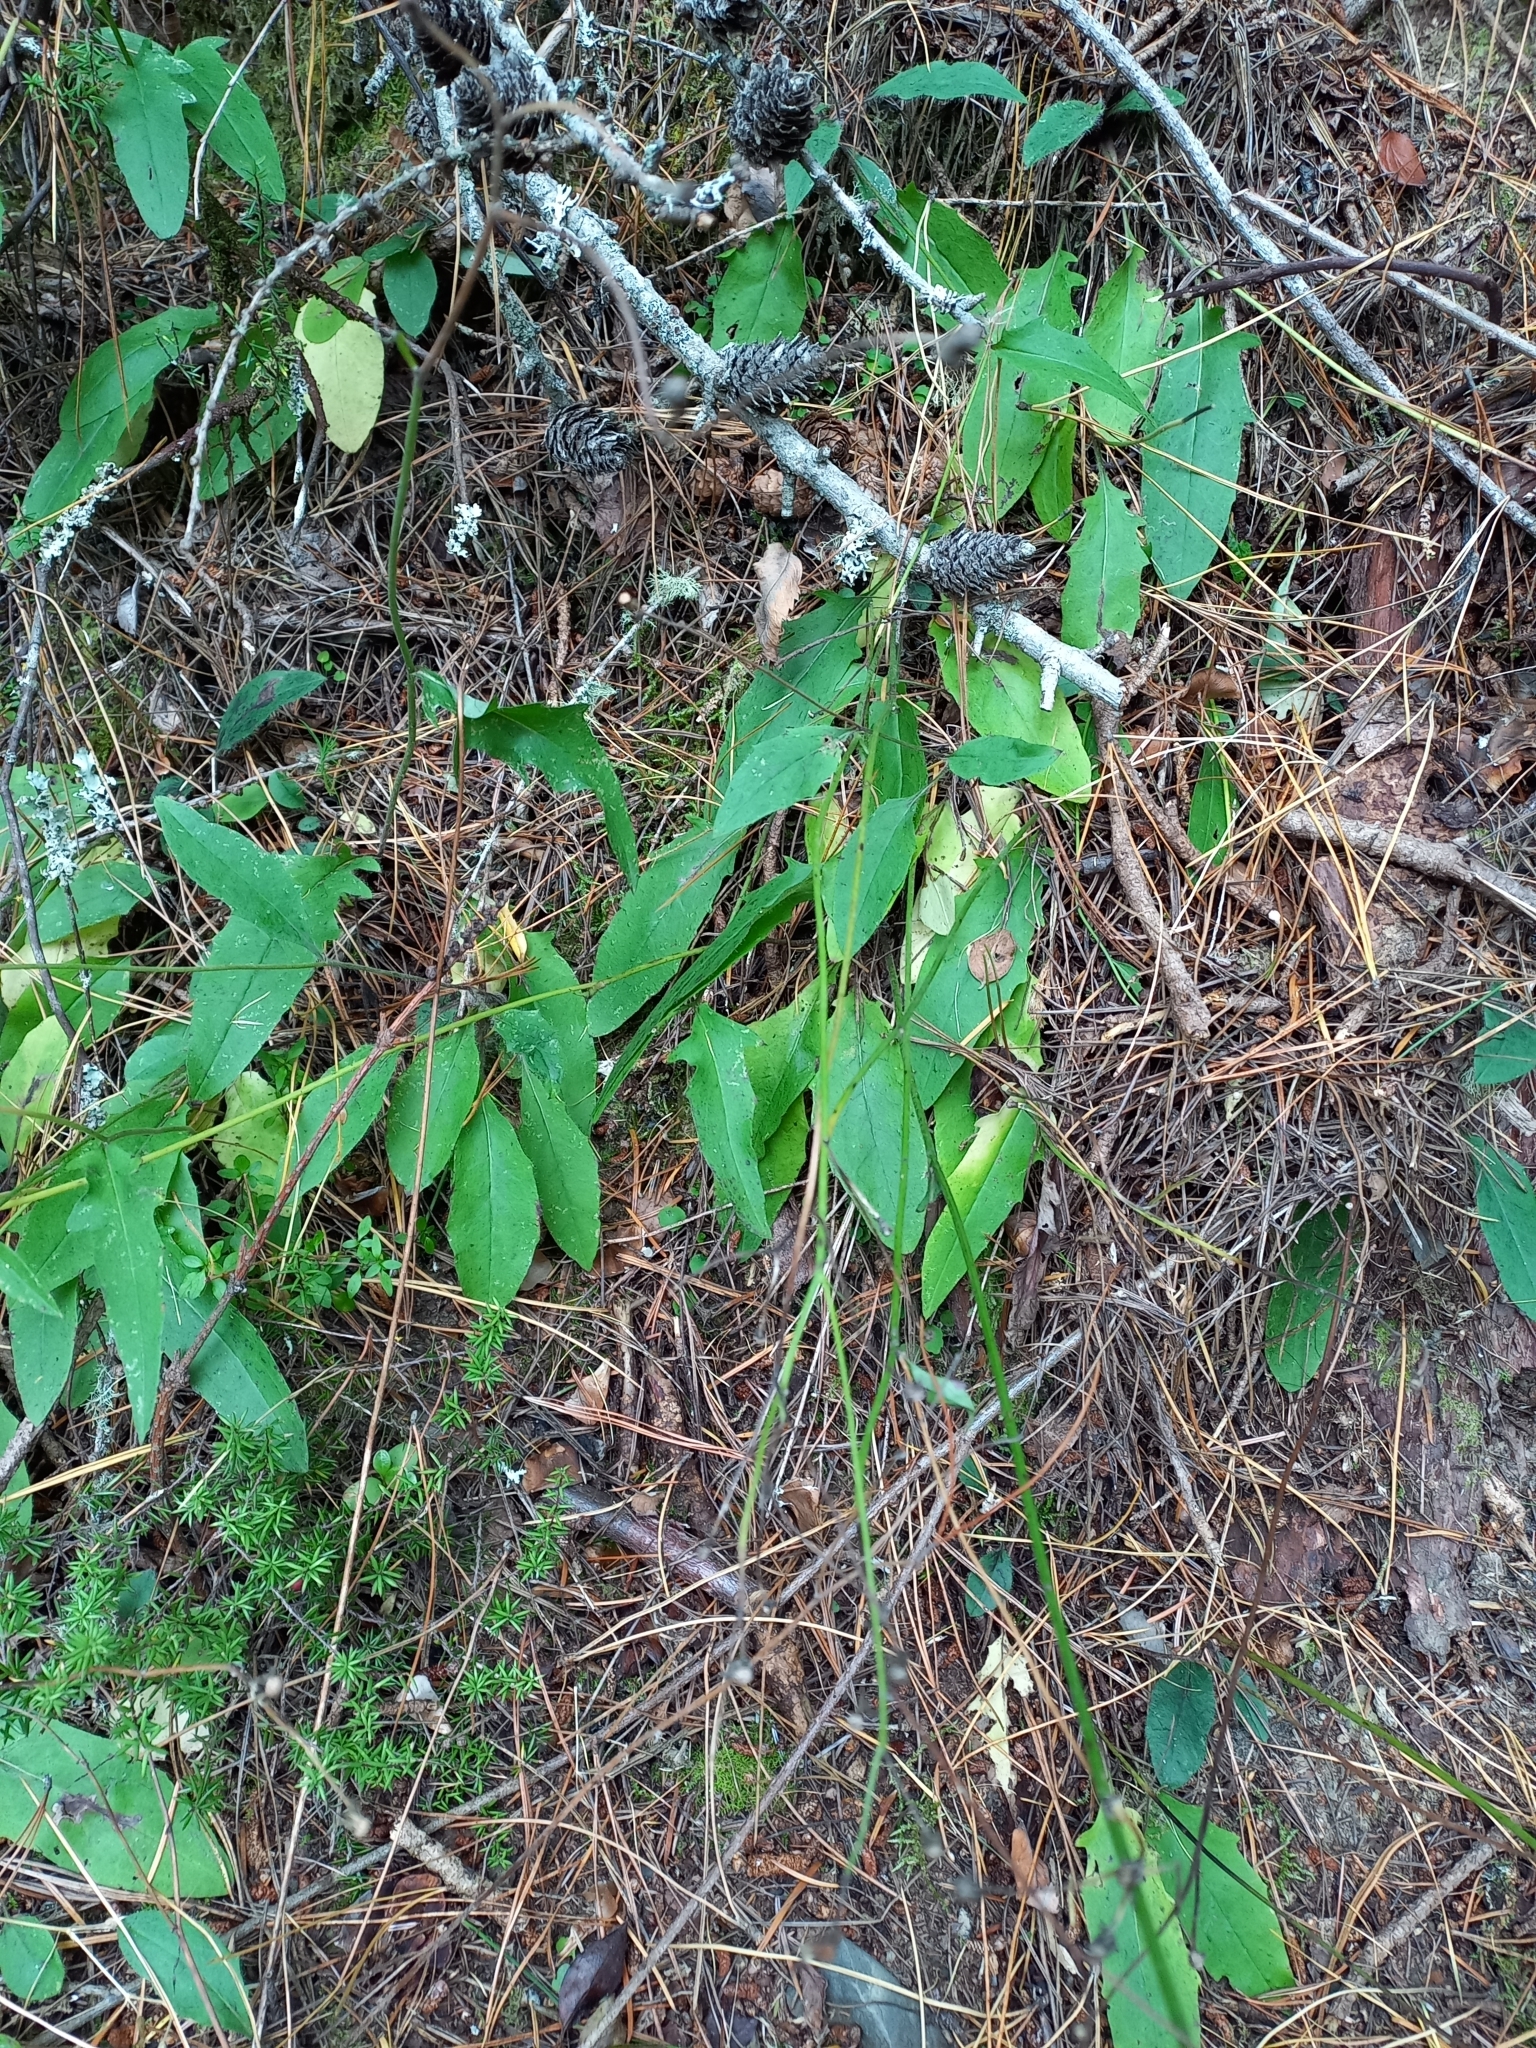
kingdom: Plantae
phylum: Tracheophyta
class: Magnoliopsida
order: Asterales
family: Asteraceae
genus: Hieracium
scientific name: Hieracium lepidulum
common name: Irregular-toothed hawkweed
